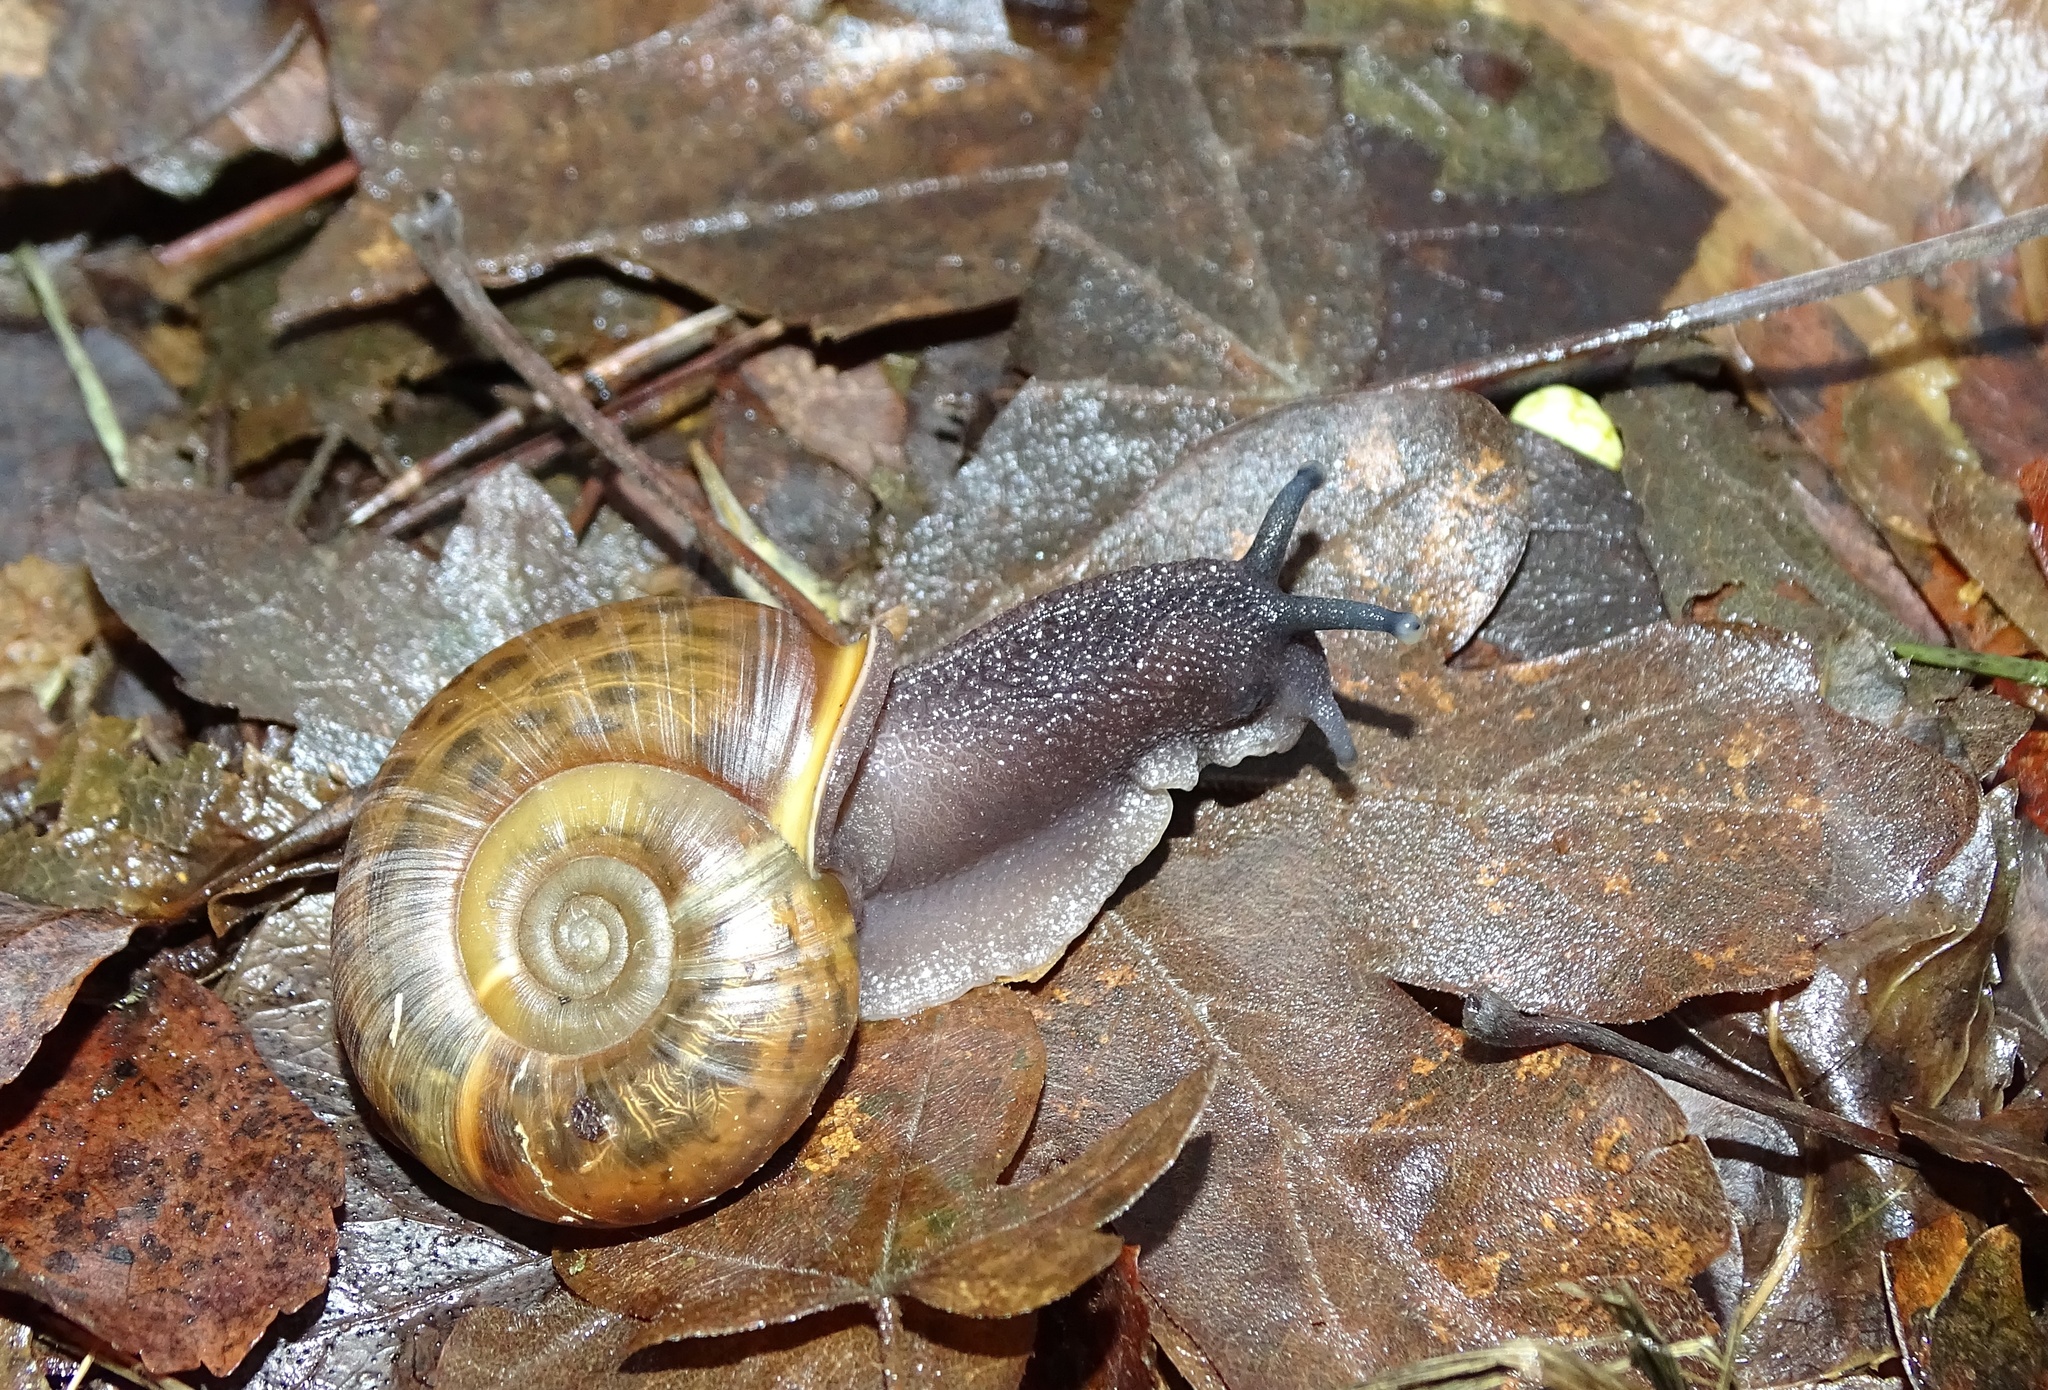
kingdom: Animalia
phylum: Mollusca
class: Gastropoda
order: Stylommatophora
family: Elonidae
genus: Elona
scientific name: Elona quimperiana
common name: Quimper snail
